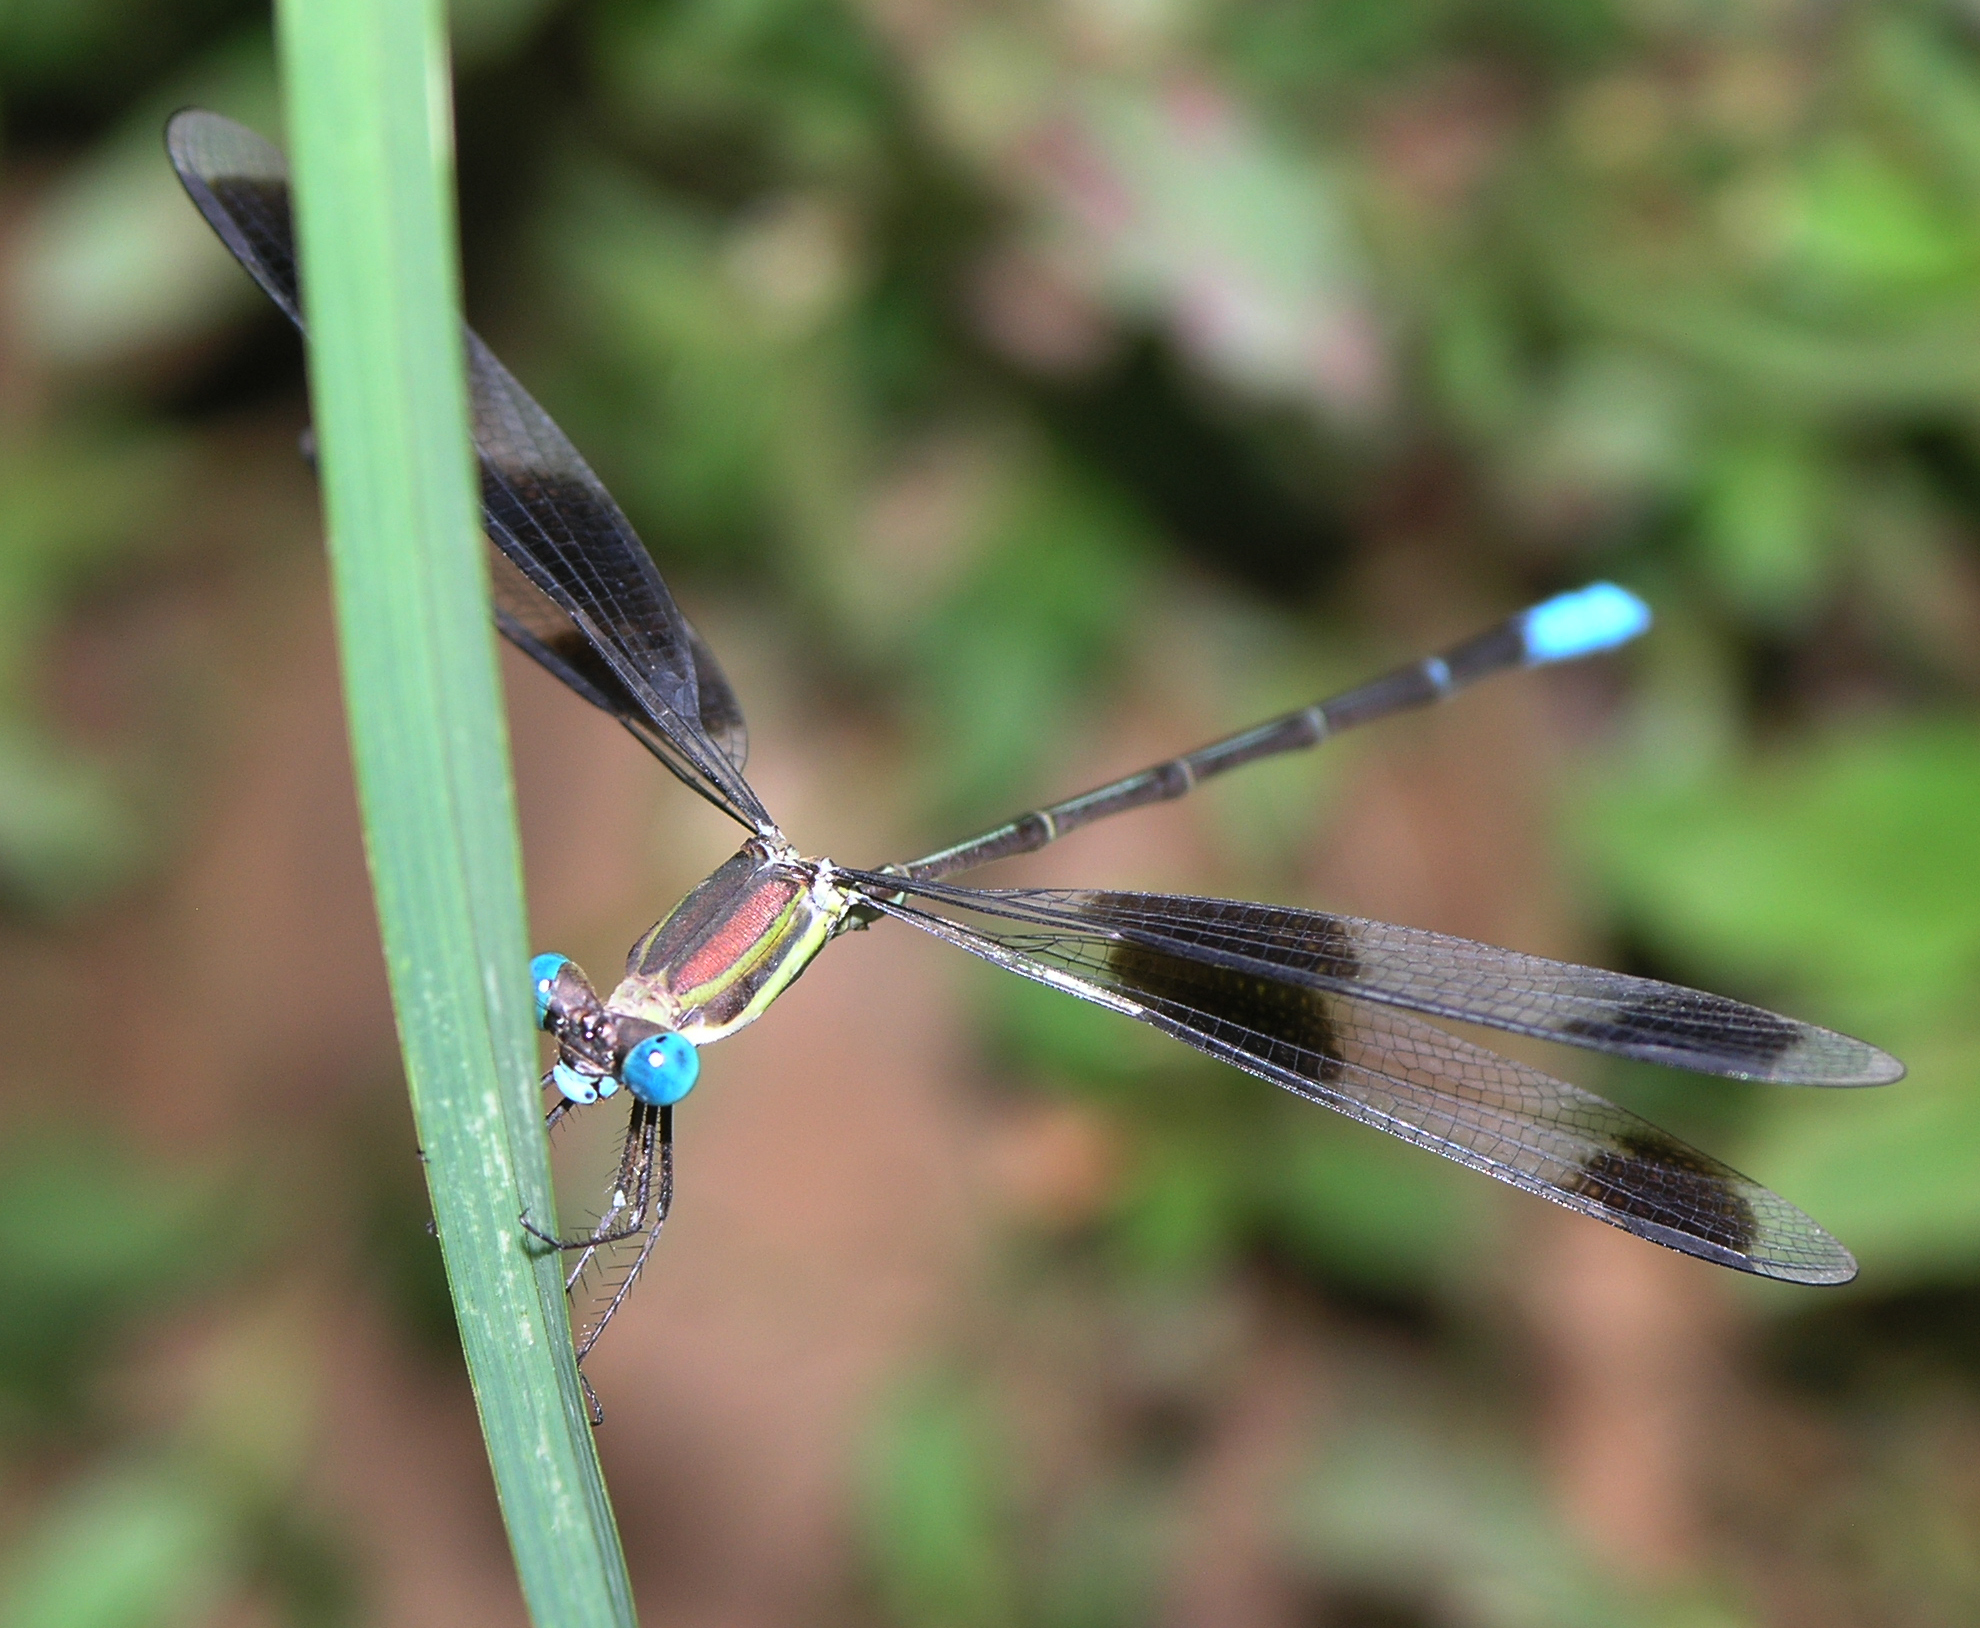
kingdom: Animalia
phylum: Arthropoda
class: Insecta
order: Odonata
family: Lestidae
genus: Orolestes
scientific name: Orolestes octomaculatus
